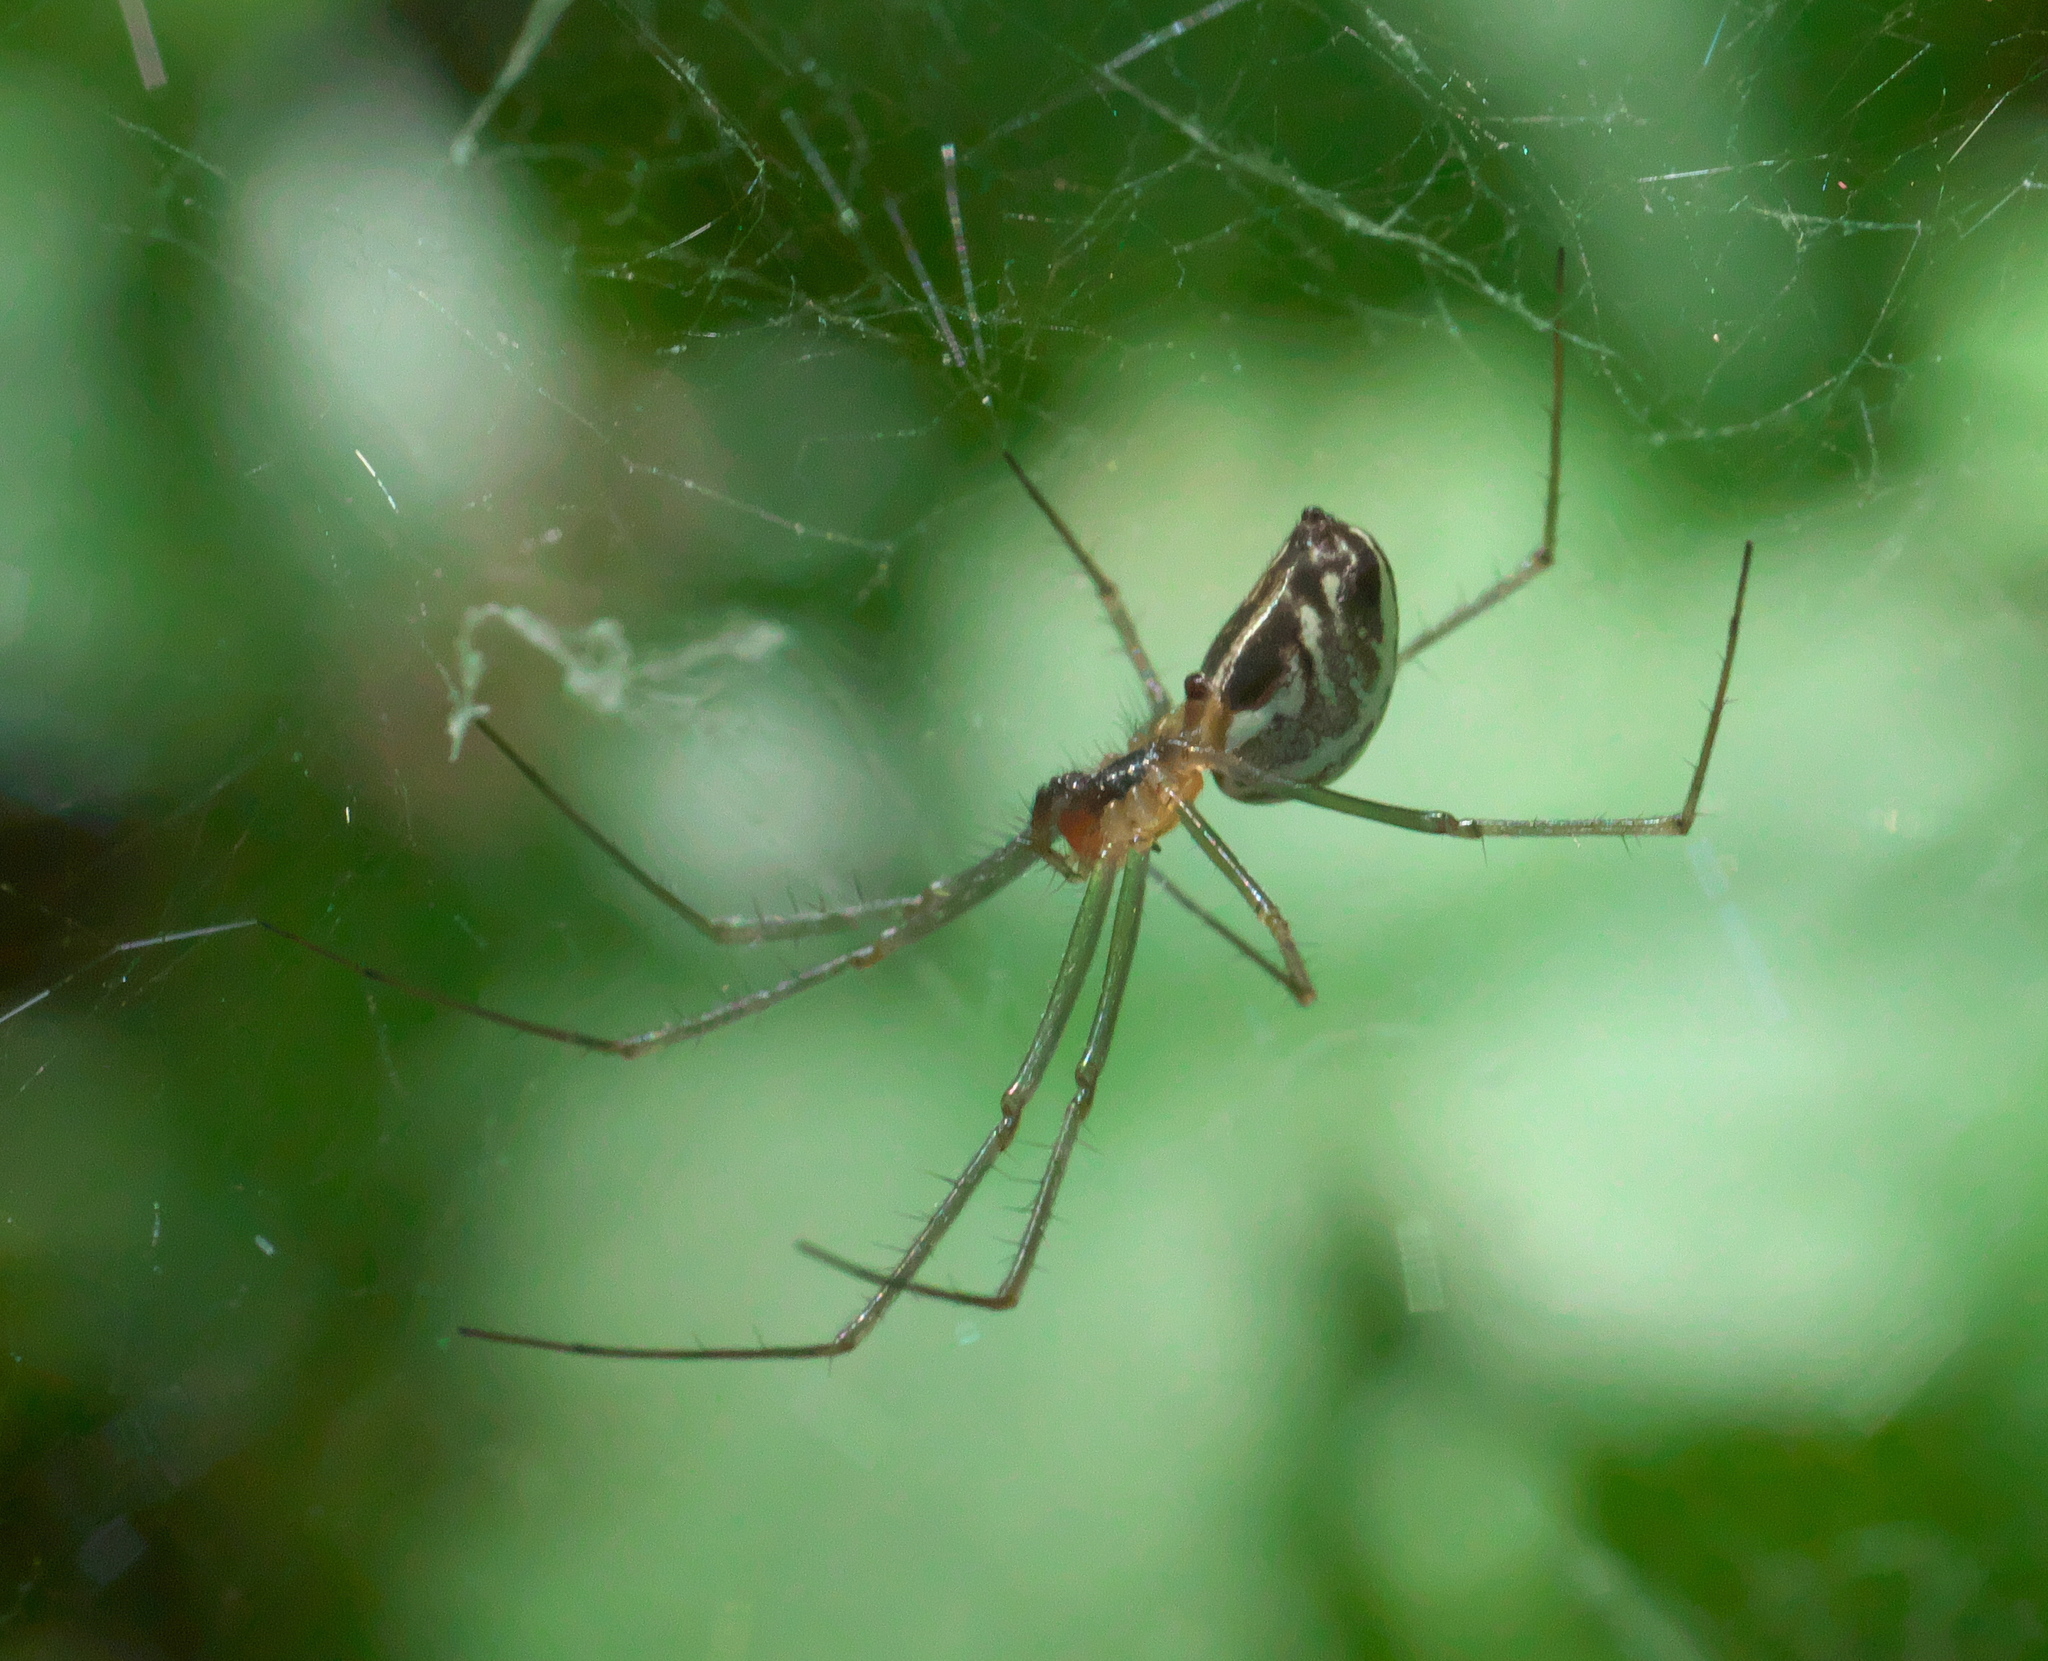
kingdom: Animalia
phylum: Arthropoda
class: Arachnida
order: Araneae
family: Linyphiidae
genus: Neriene
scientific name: Neriene litigiosa
